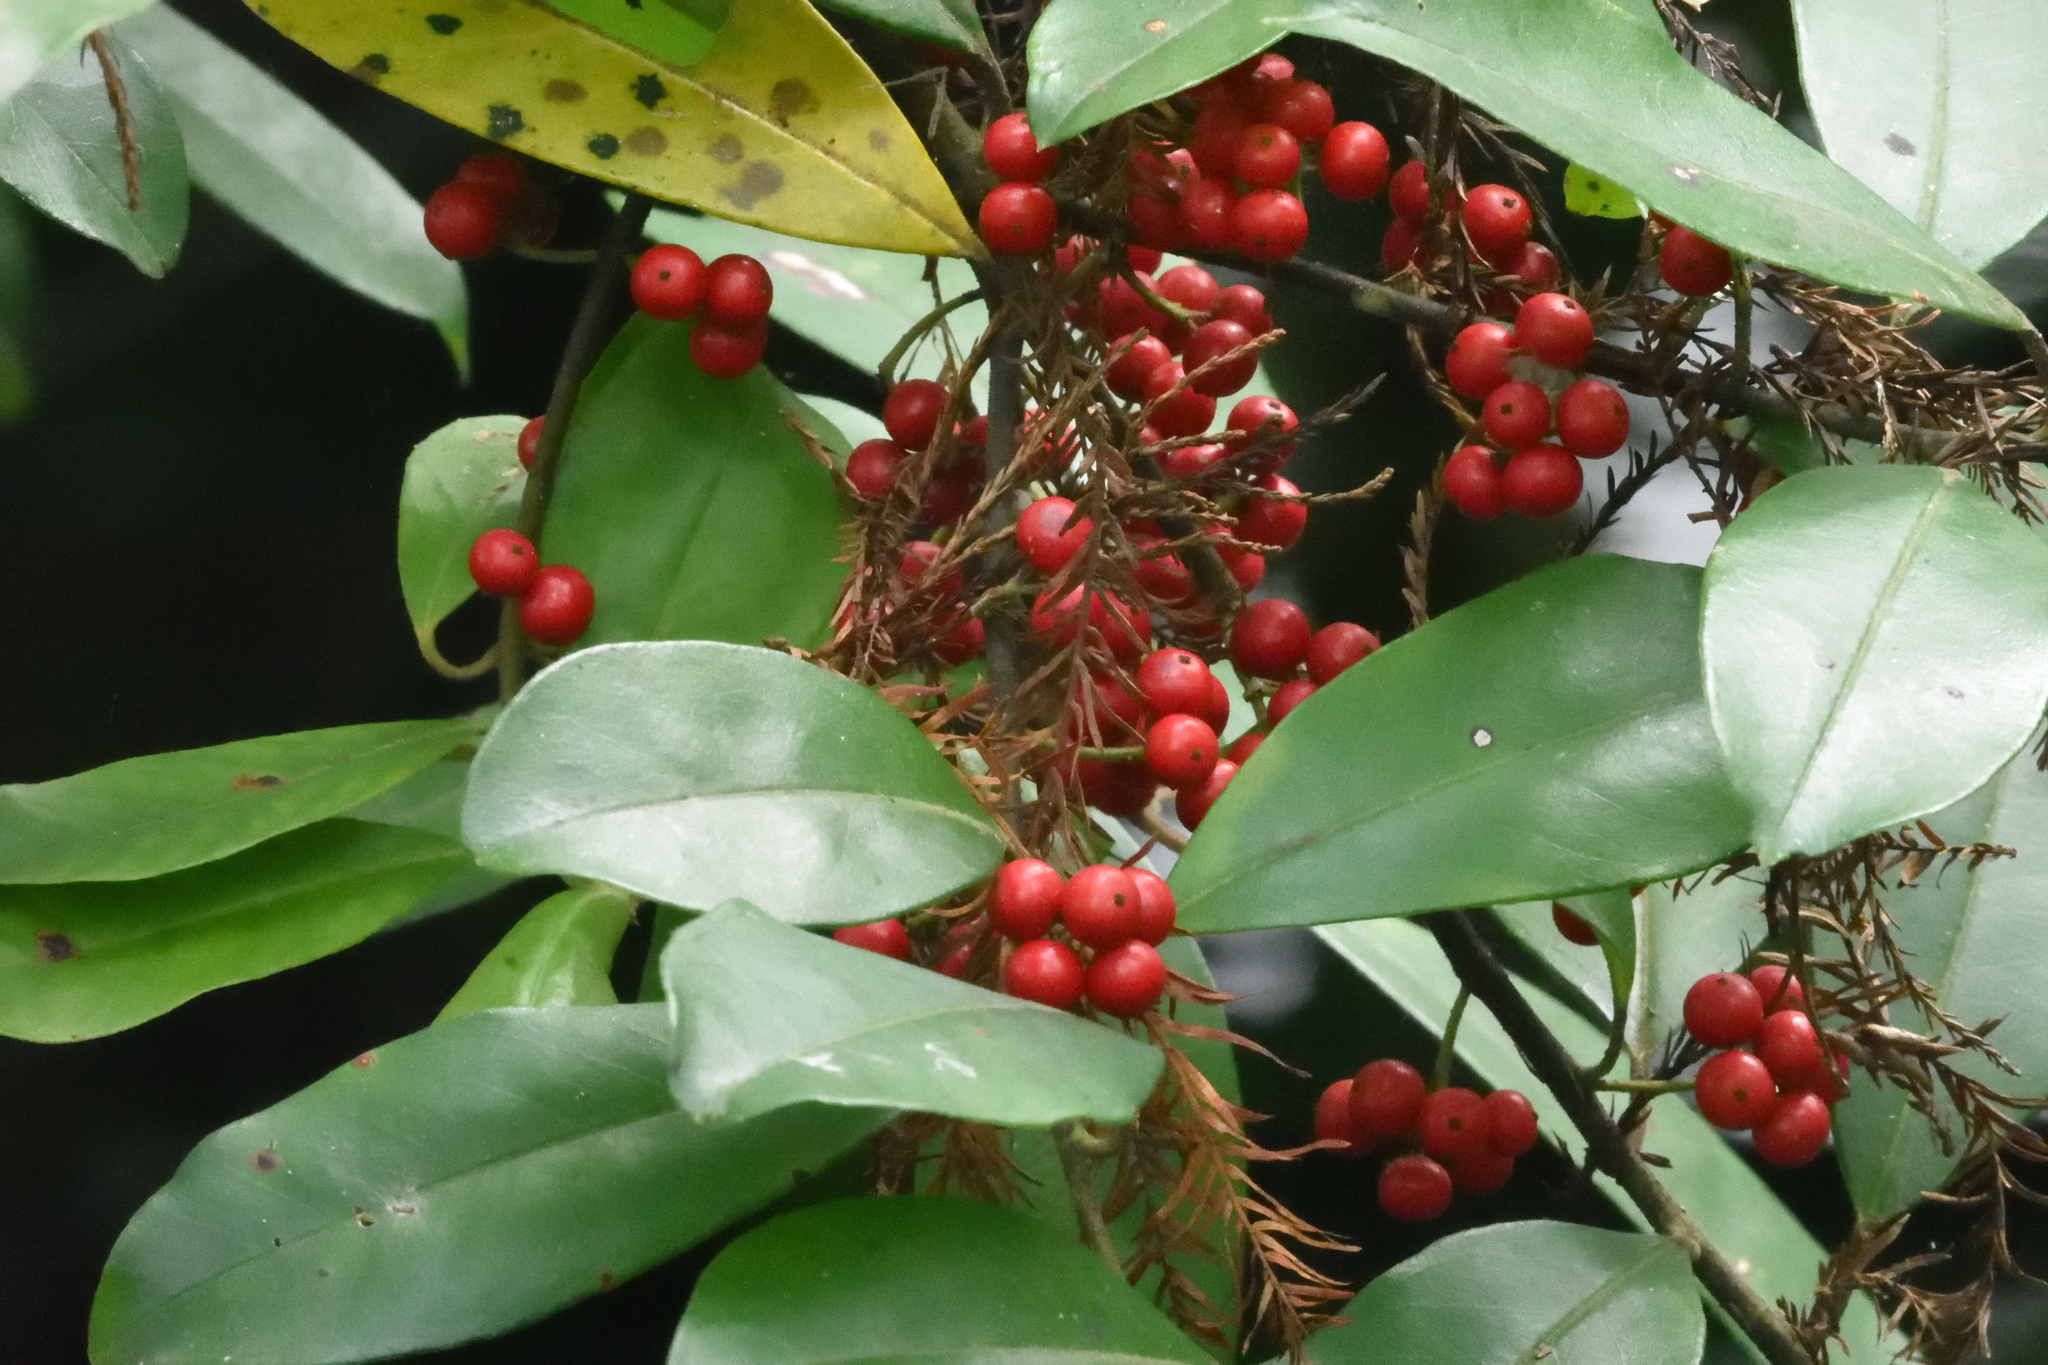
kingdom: Plantae
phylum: Tracheophyta
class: Magnoliopsida
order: Aquifoliales
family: Aquifoliaceae
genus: Ilex
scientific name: Ilex cassine
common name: Dahoon
